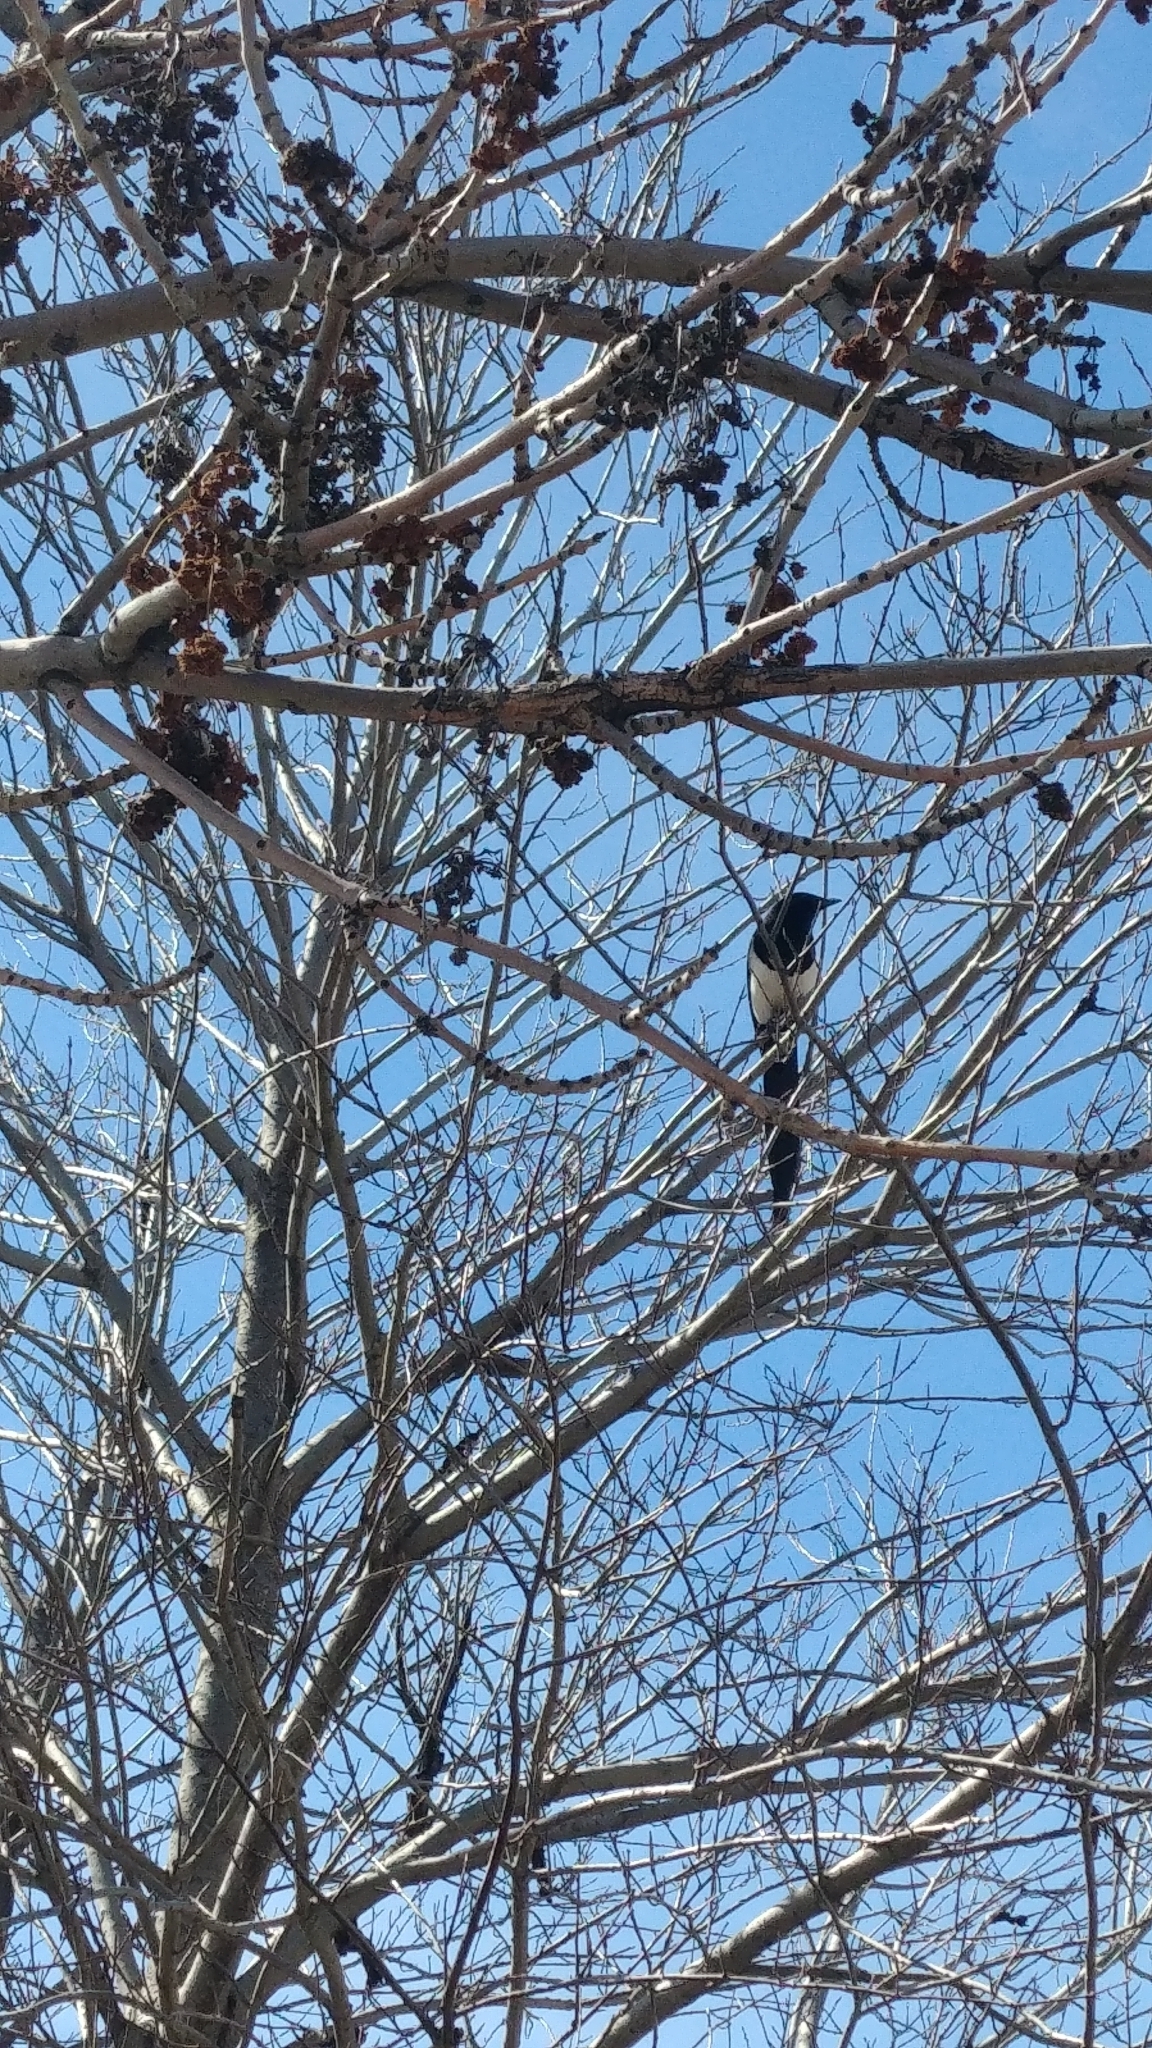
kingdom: Animalia
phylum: Chordata
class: Aves
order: Passeriformes
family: Corvidae
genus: Pica
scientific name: Pica hudsonia
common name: Black-billed magpie
